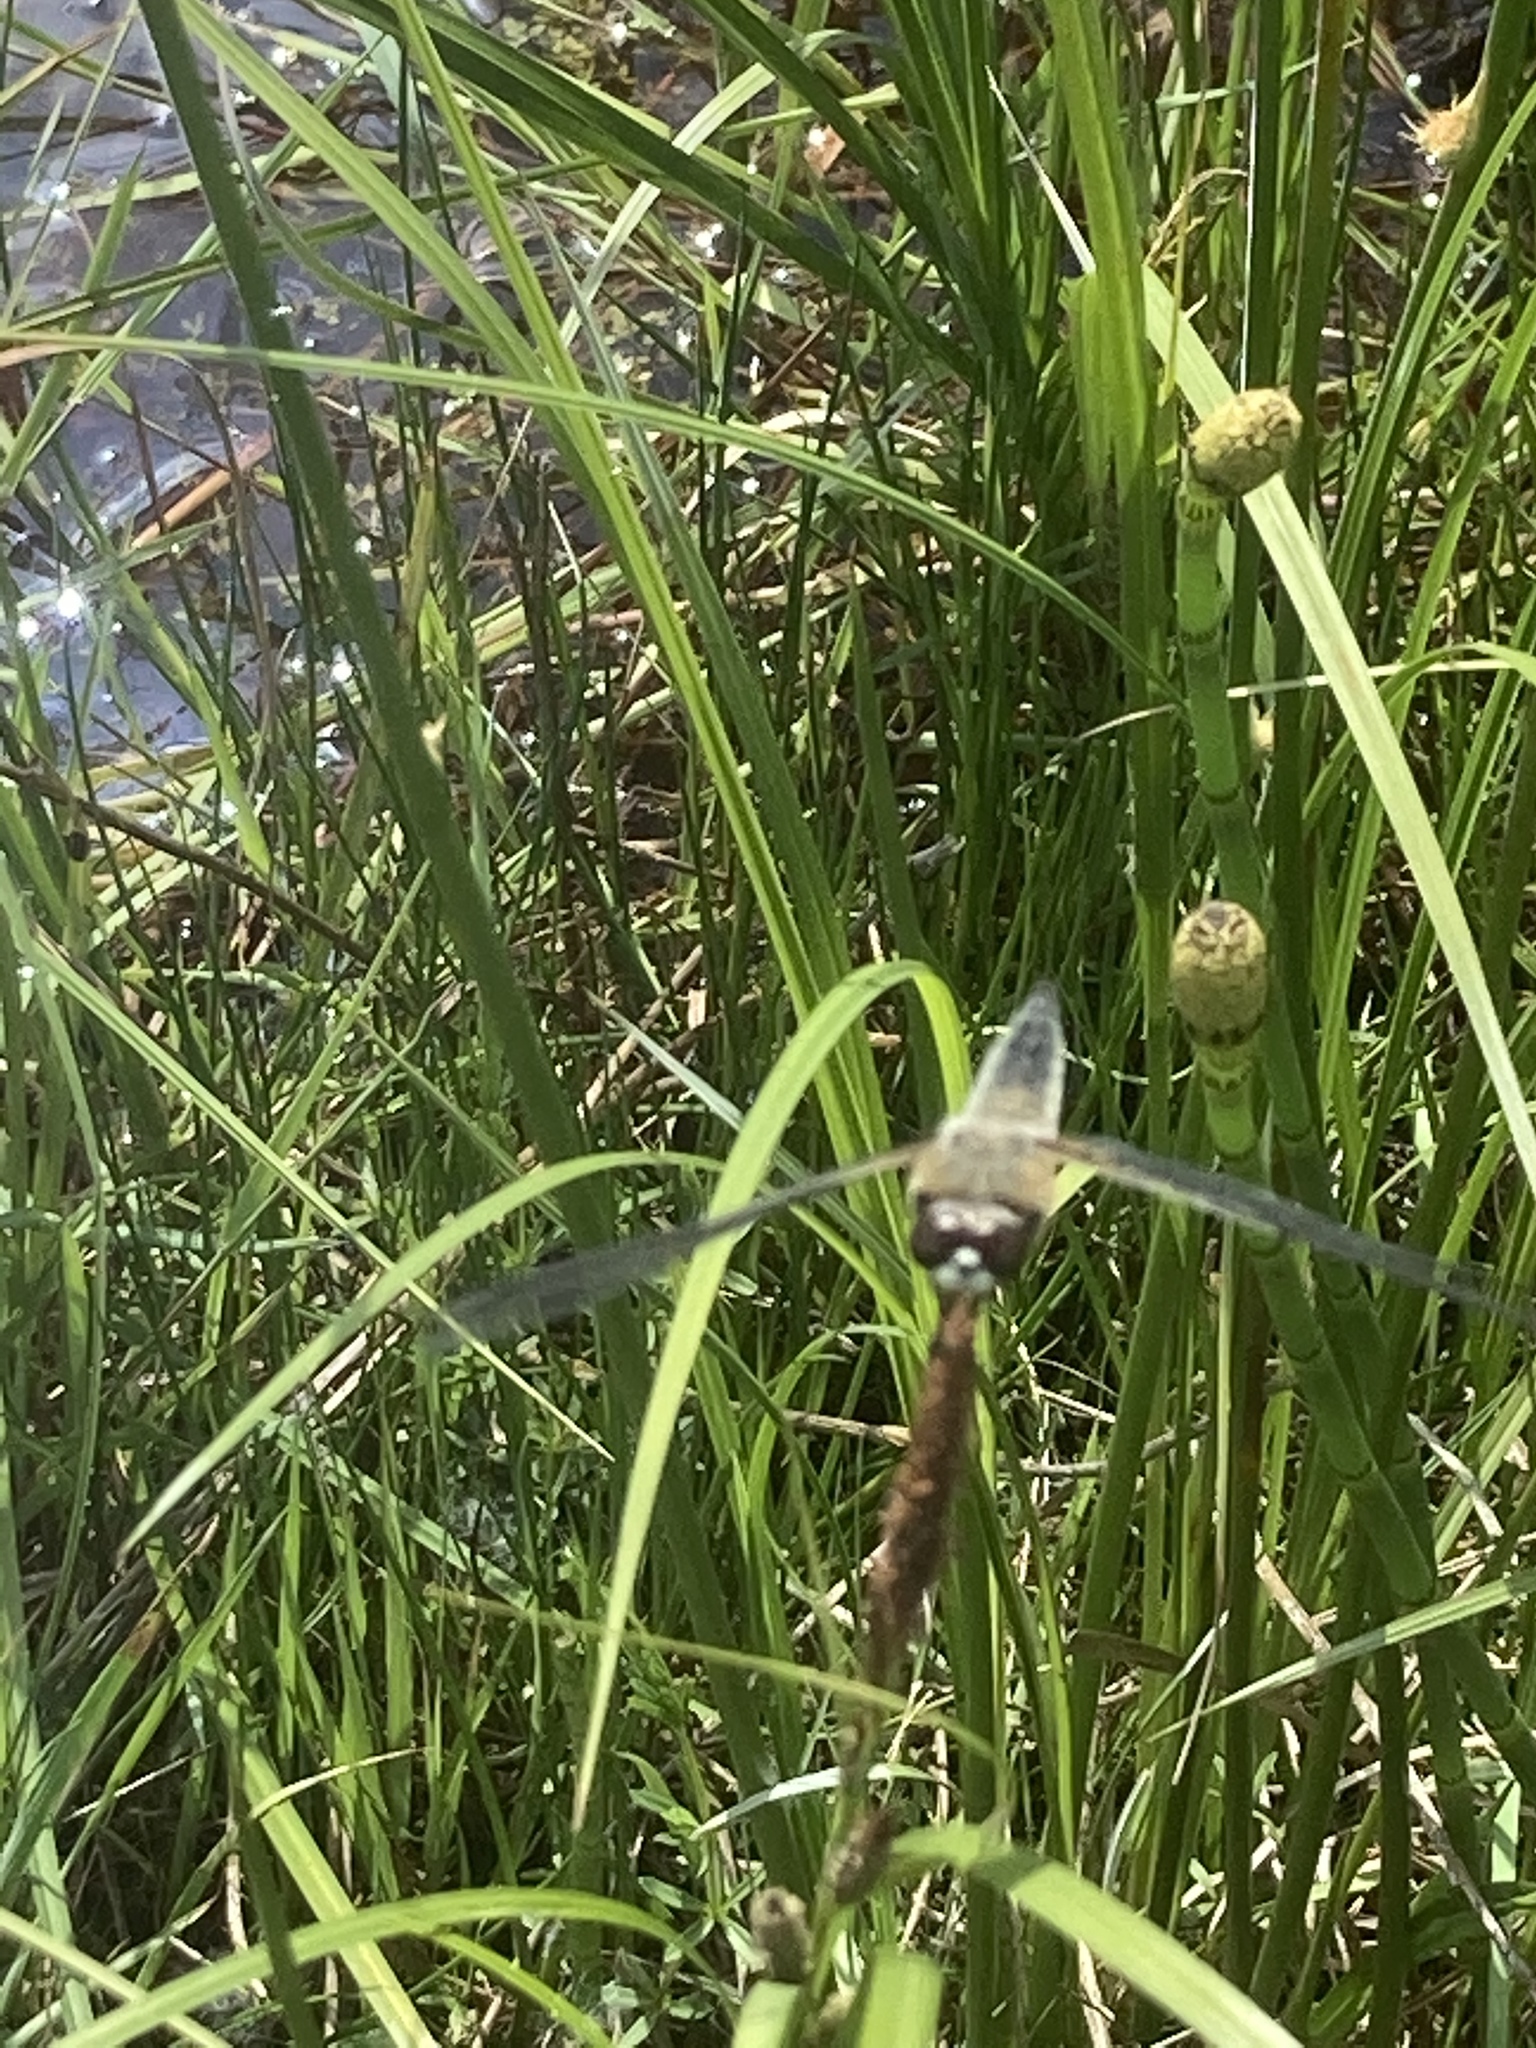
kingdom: Animalia
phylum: Arthropoda
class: Insecta
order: Odonata
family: Libellulidae
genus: Libellula
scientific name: Libellula quadrimaculata
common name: Four-spotted chaser
